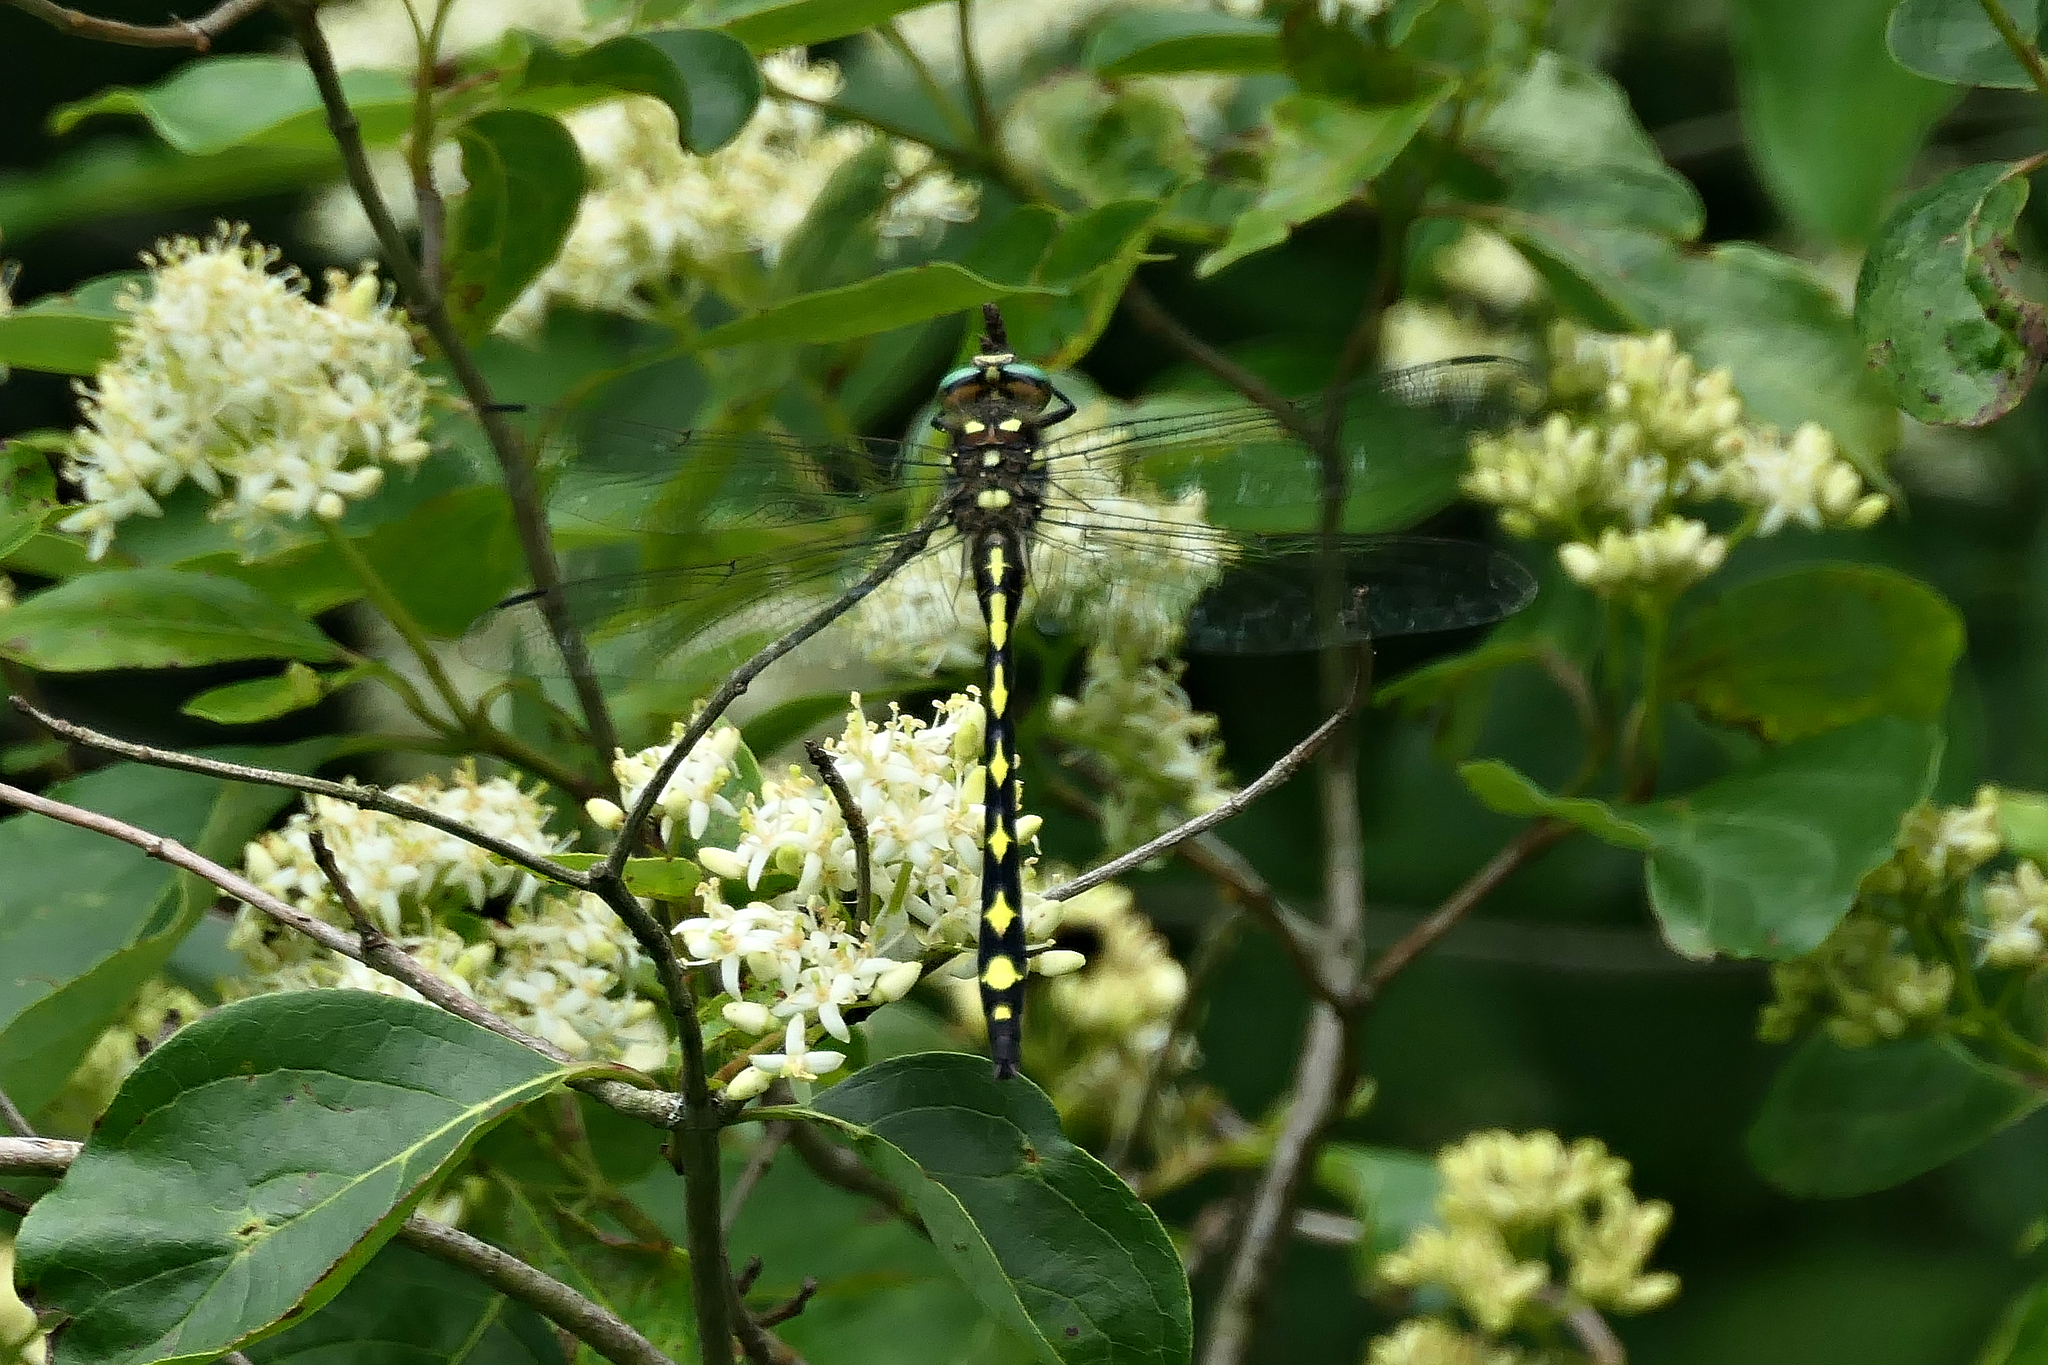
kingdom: Animalia
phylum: Arthropoda
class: Insecta
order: Odonata
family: Cordulegastridae
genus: Cordulegaster
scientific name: Cordulegaster obliqua
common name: Arrowhead spiketail
